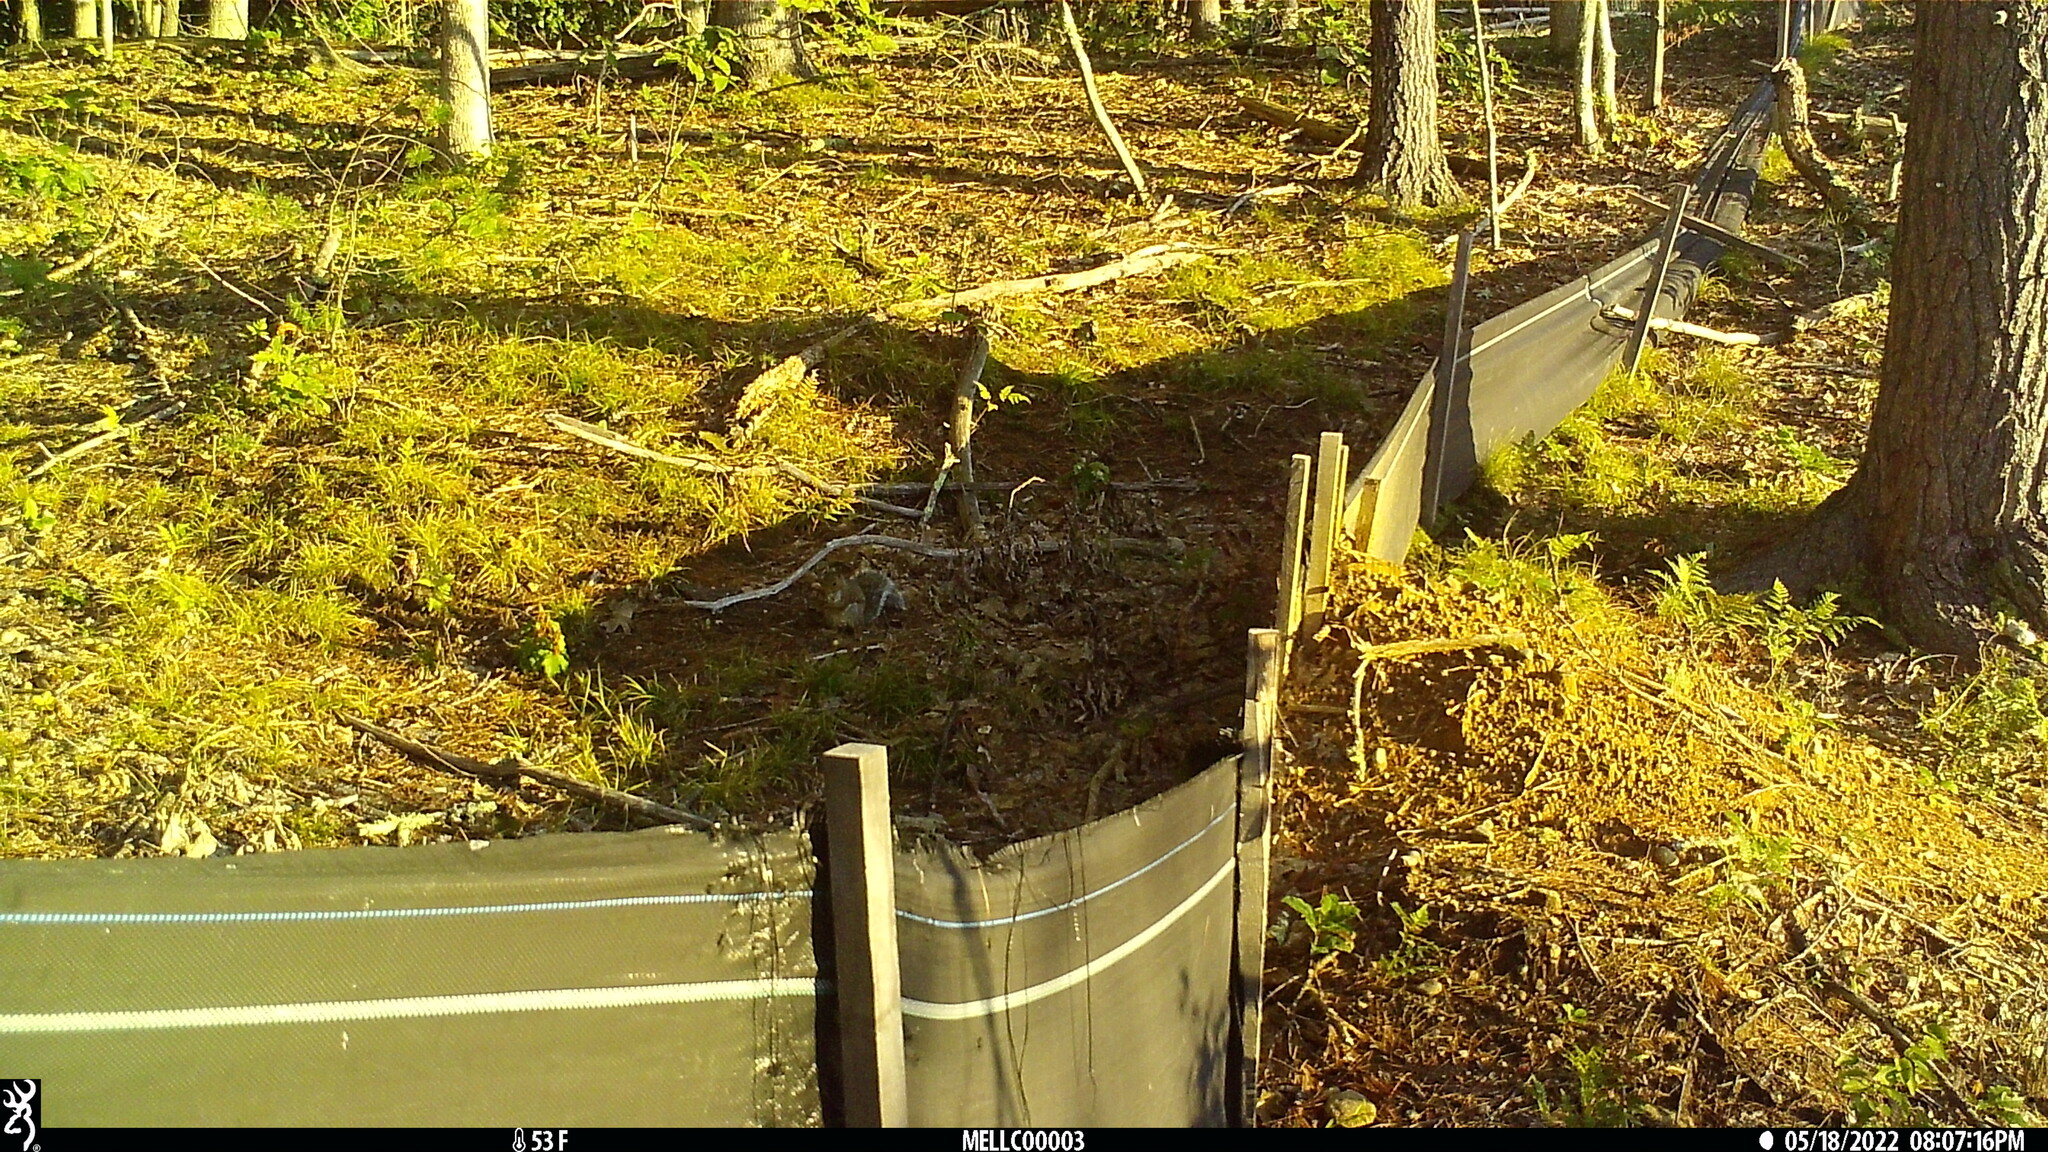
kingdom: Animalia
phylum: Chordata
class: Mammalia
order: Rodentia
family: Sciuridae
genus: Sciurus
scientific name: Sciurus carolinensis
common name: Eastern gray squirrel
